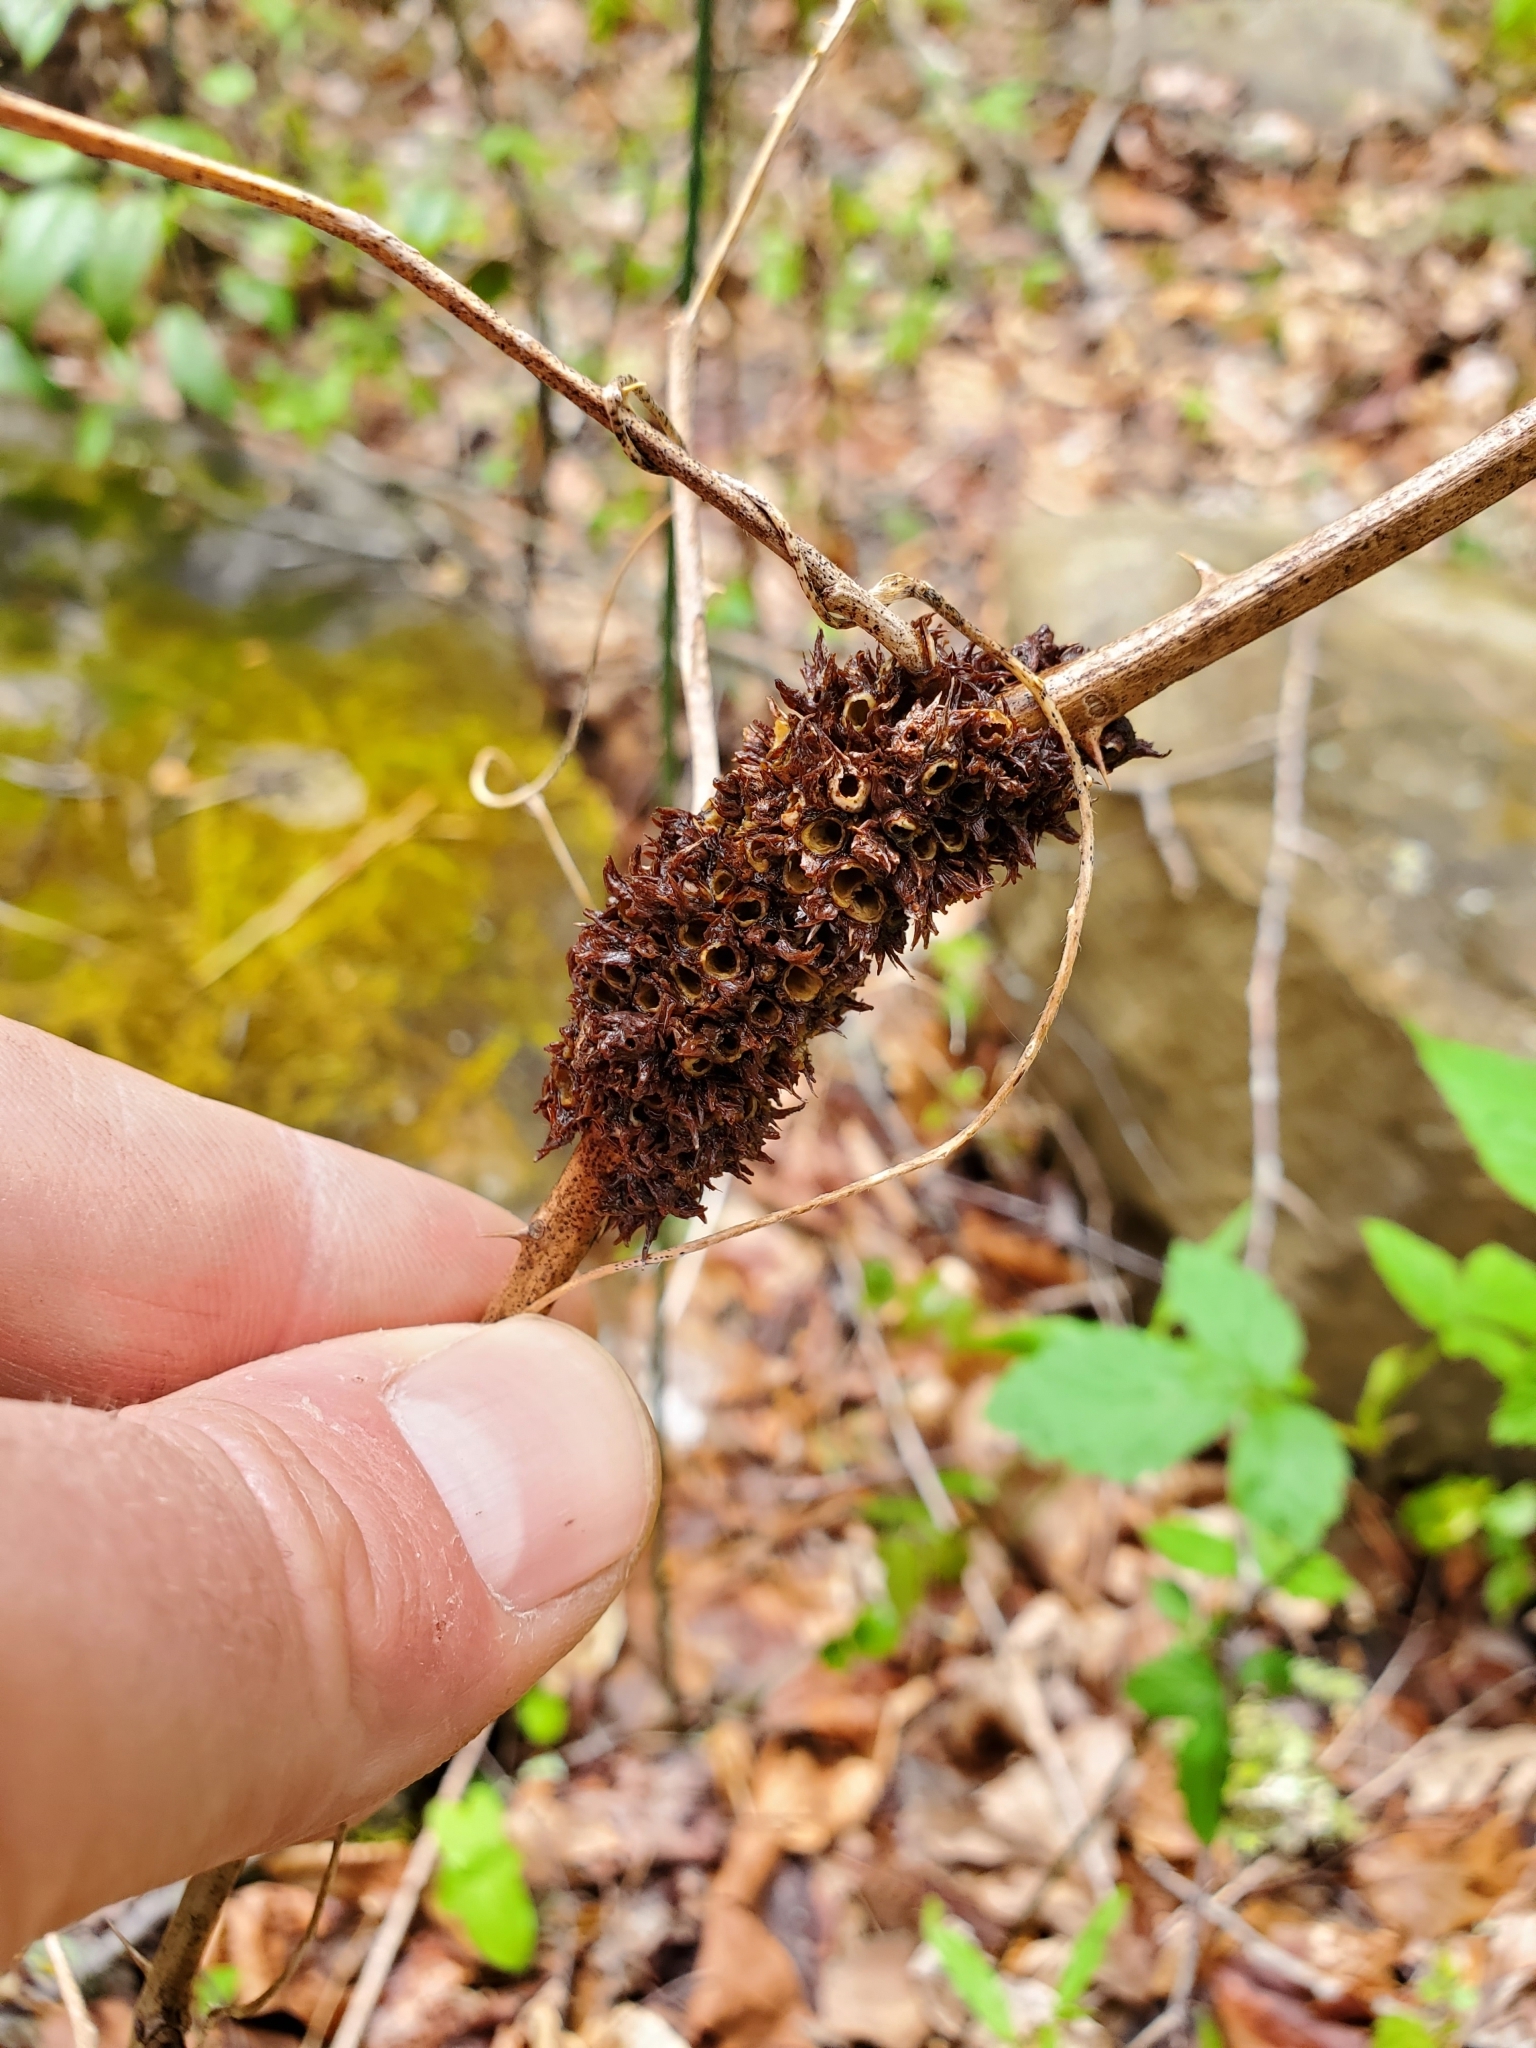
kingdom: Animalia
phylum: Arthropoda
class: Insecta
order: Hymenoptera
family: Cynipidae
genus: Diastrophus
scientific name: Diastrophus
